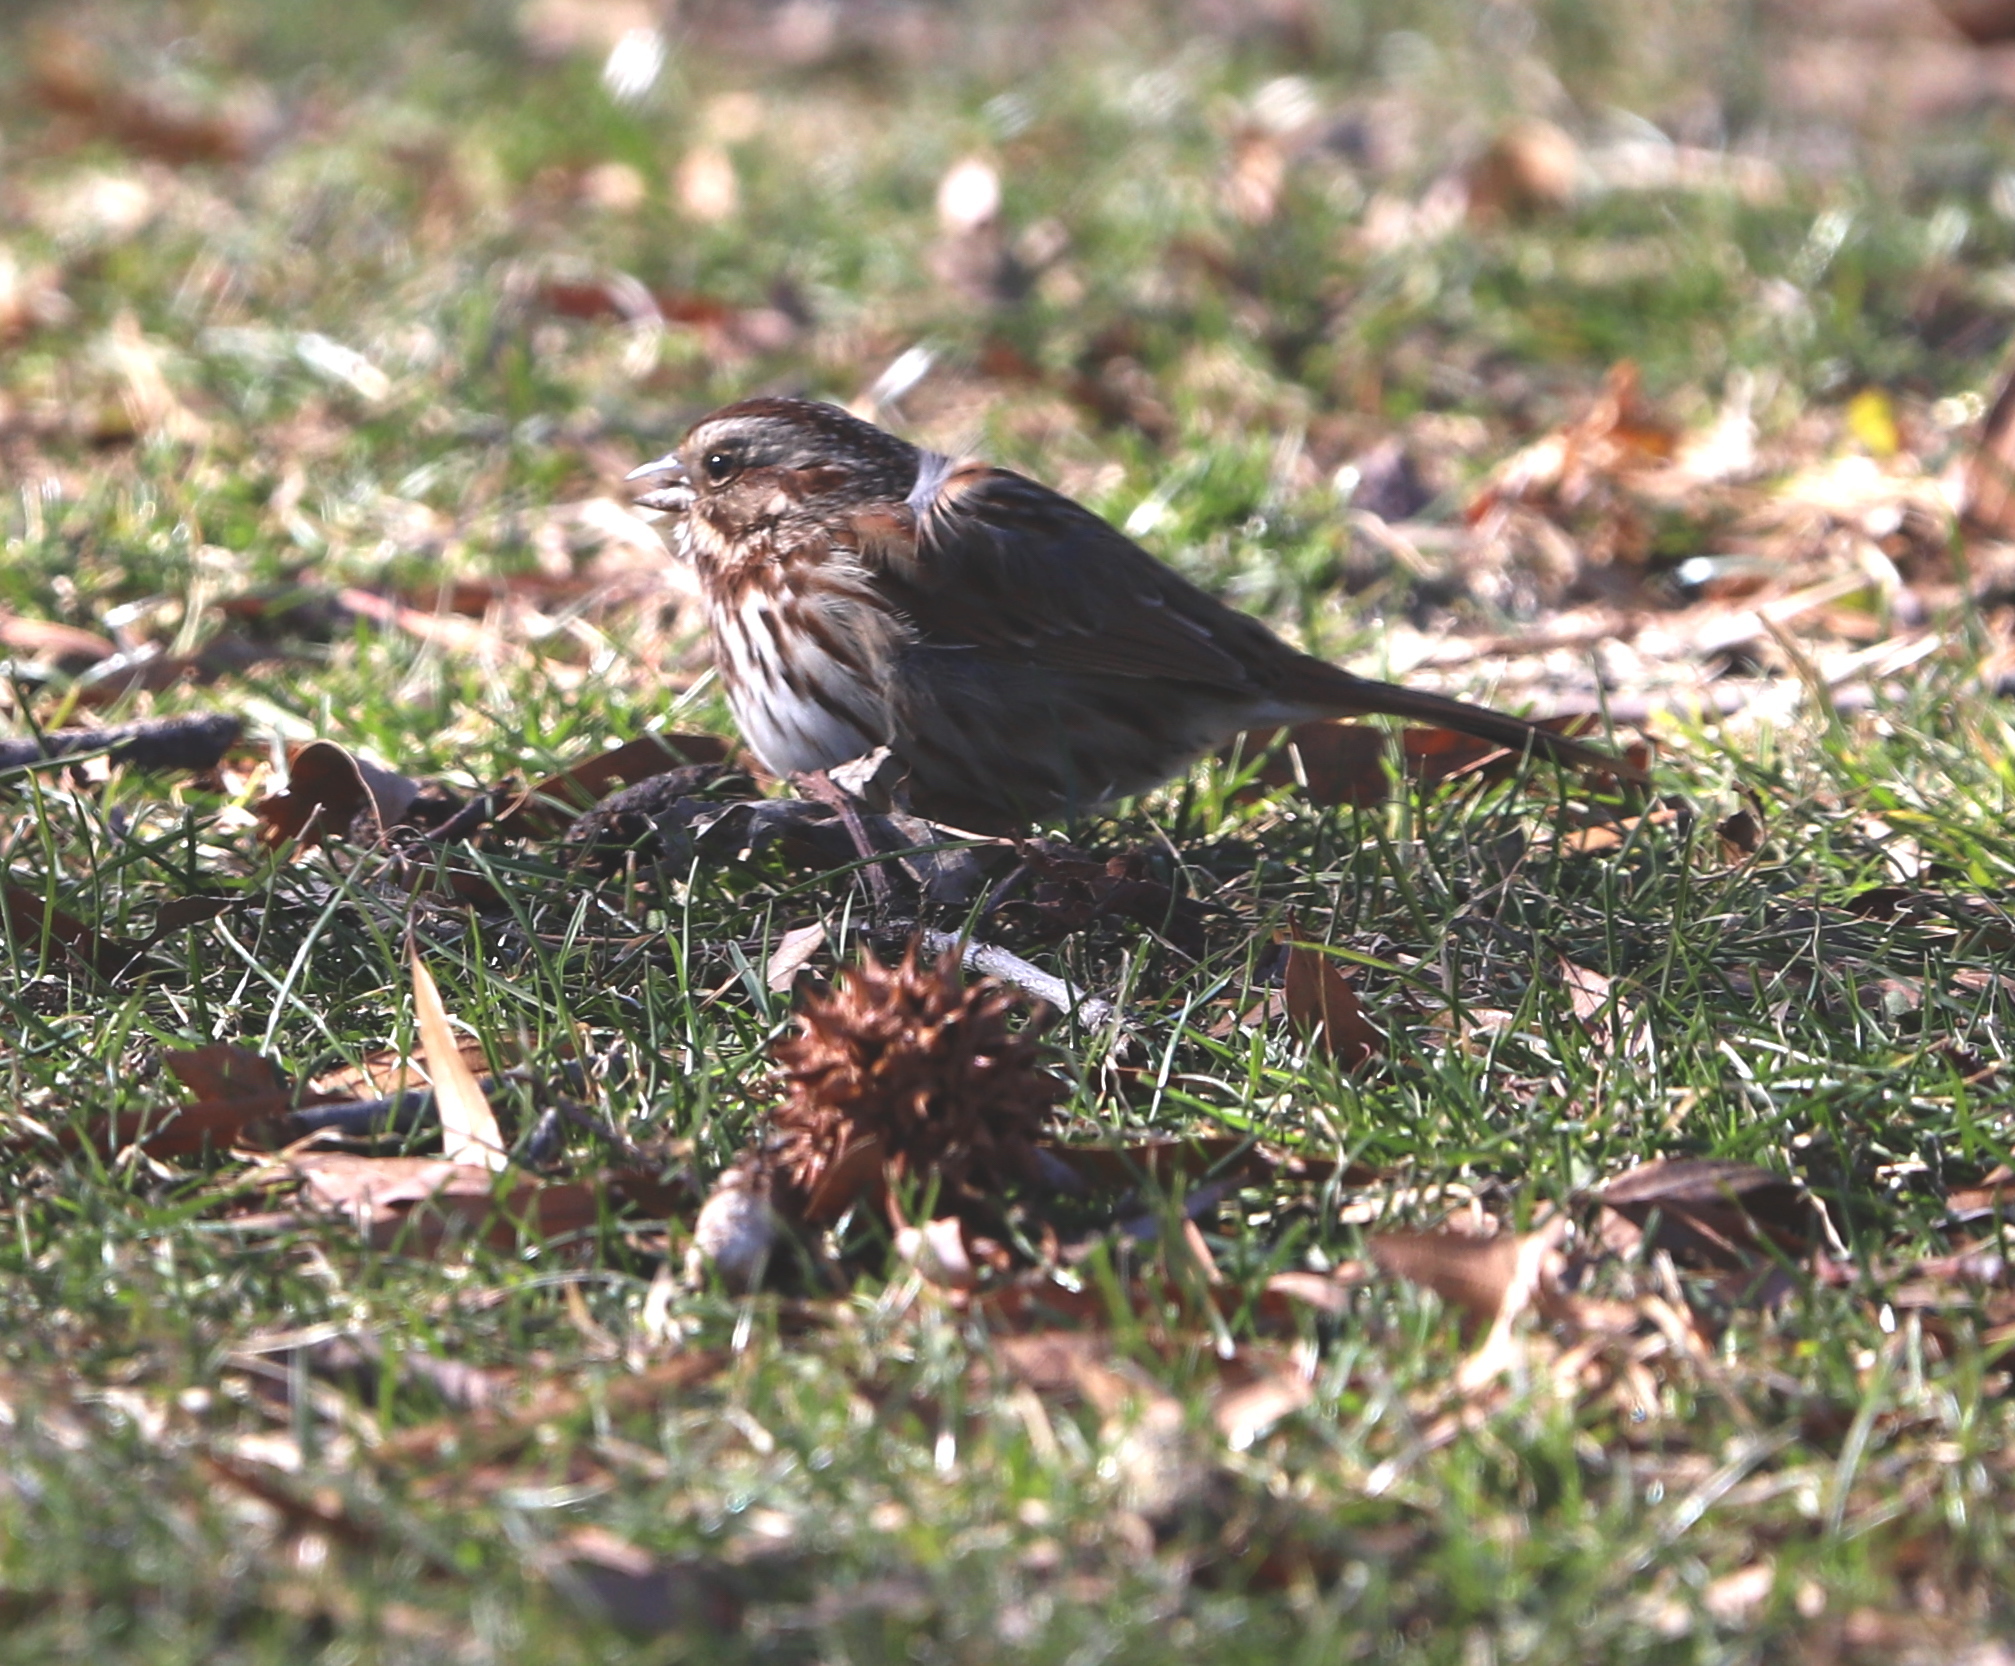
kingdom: Animalia
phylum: Chordata
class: Aves
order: Passeriformes
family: Passerellidae
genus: Melospiza
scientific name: Melospiza melodia
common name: Song sparrow
